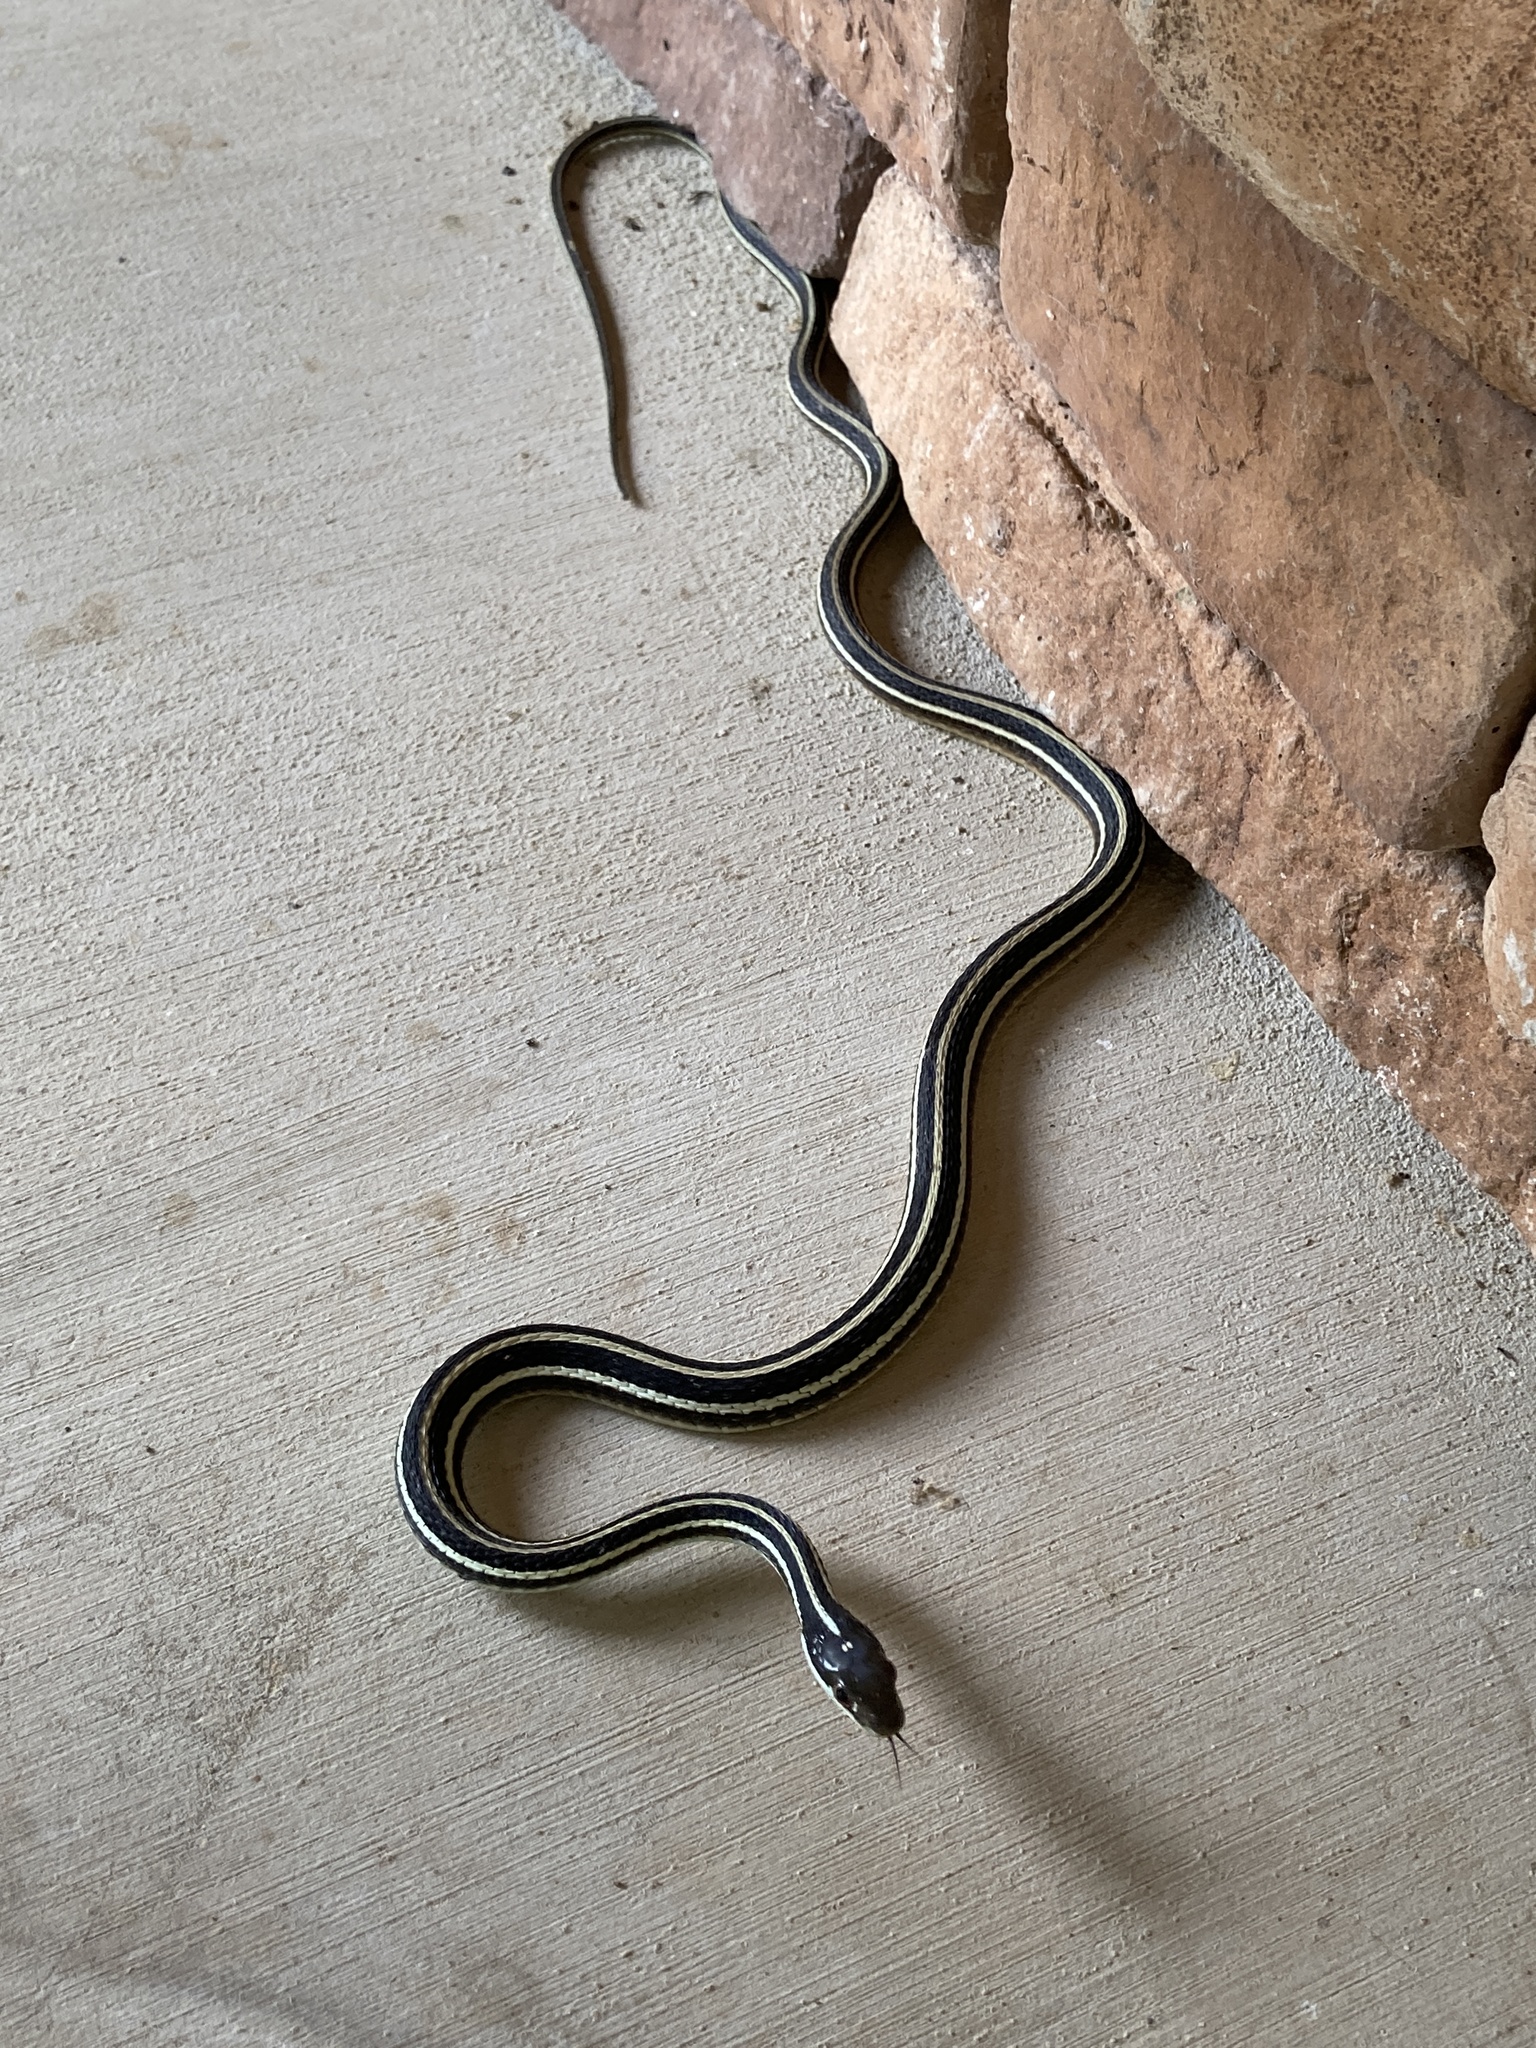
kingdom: Animalia
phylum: Chordata
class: Squamata
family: Colubridae
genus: Thamnophis
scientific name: Thamnophis proximus
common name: Western ribbon snake
